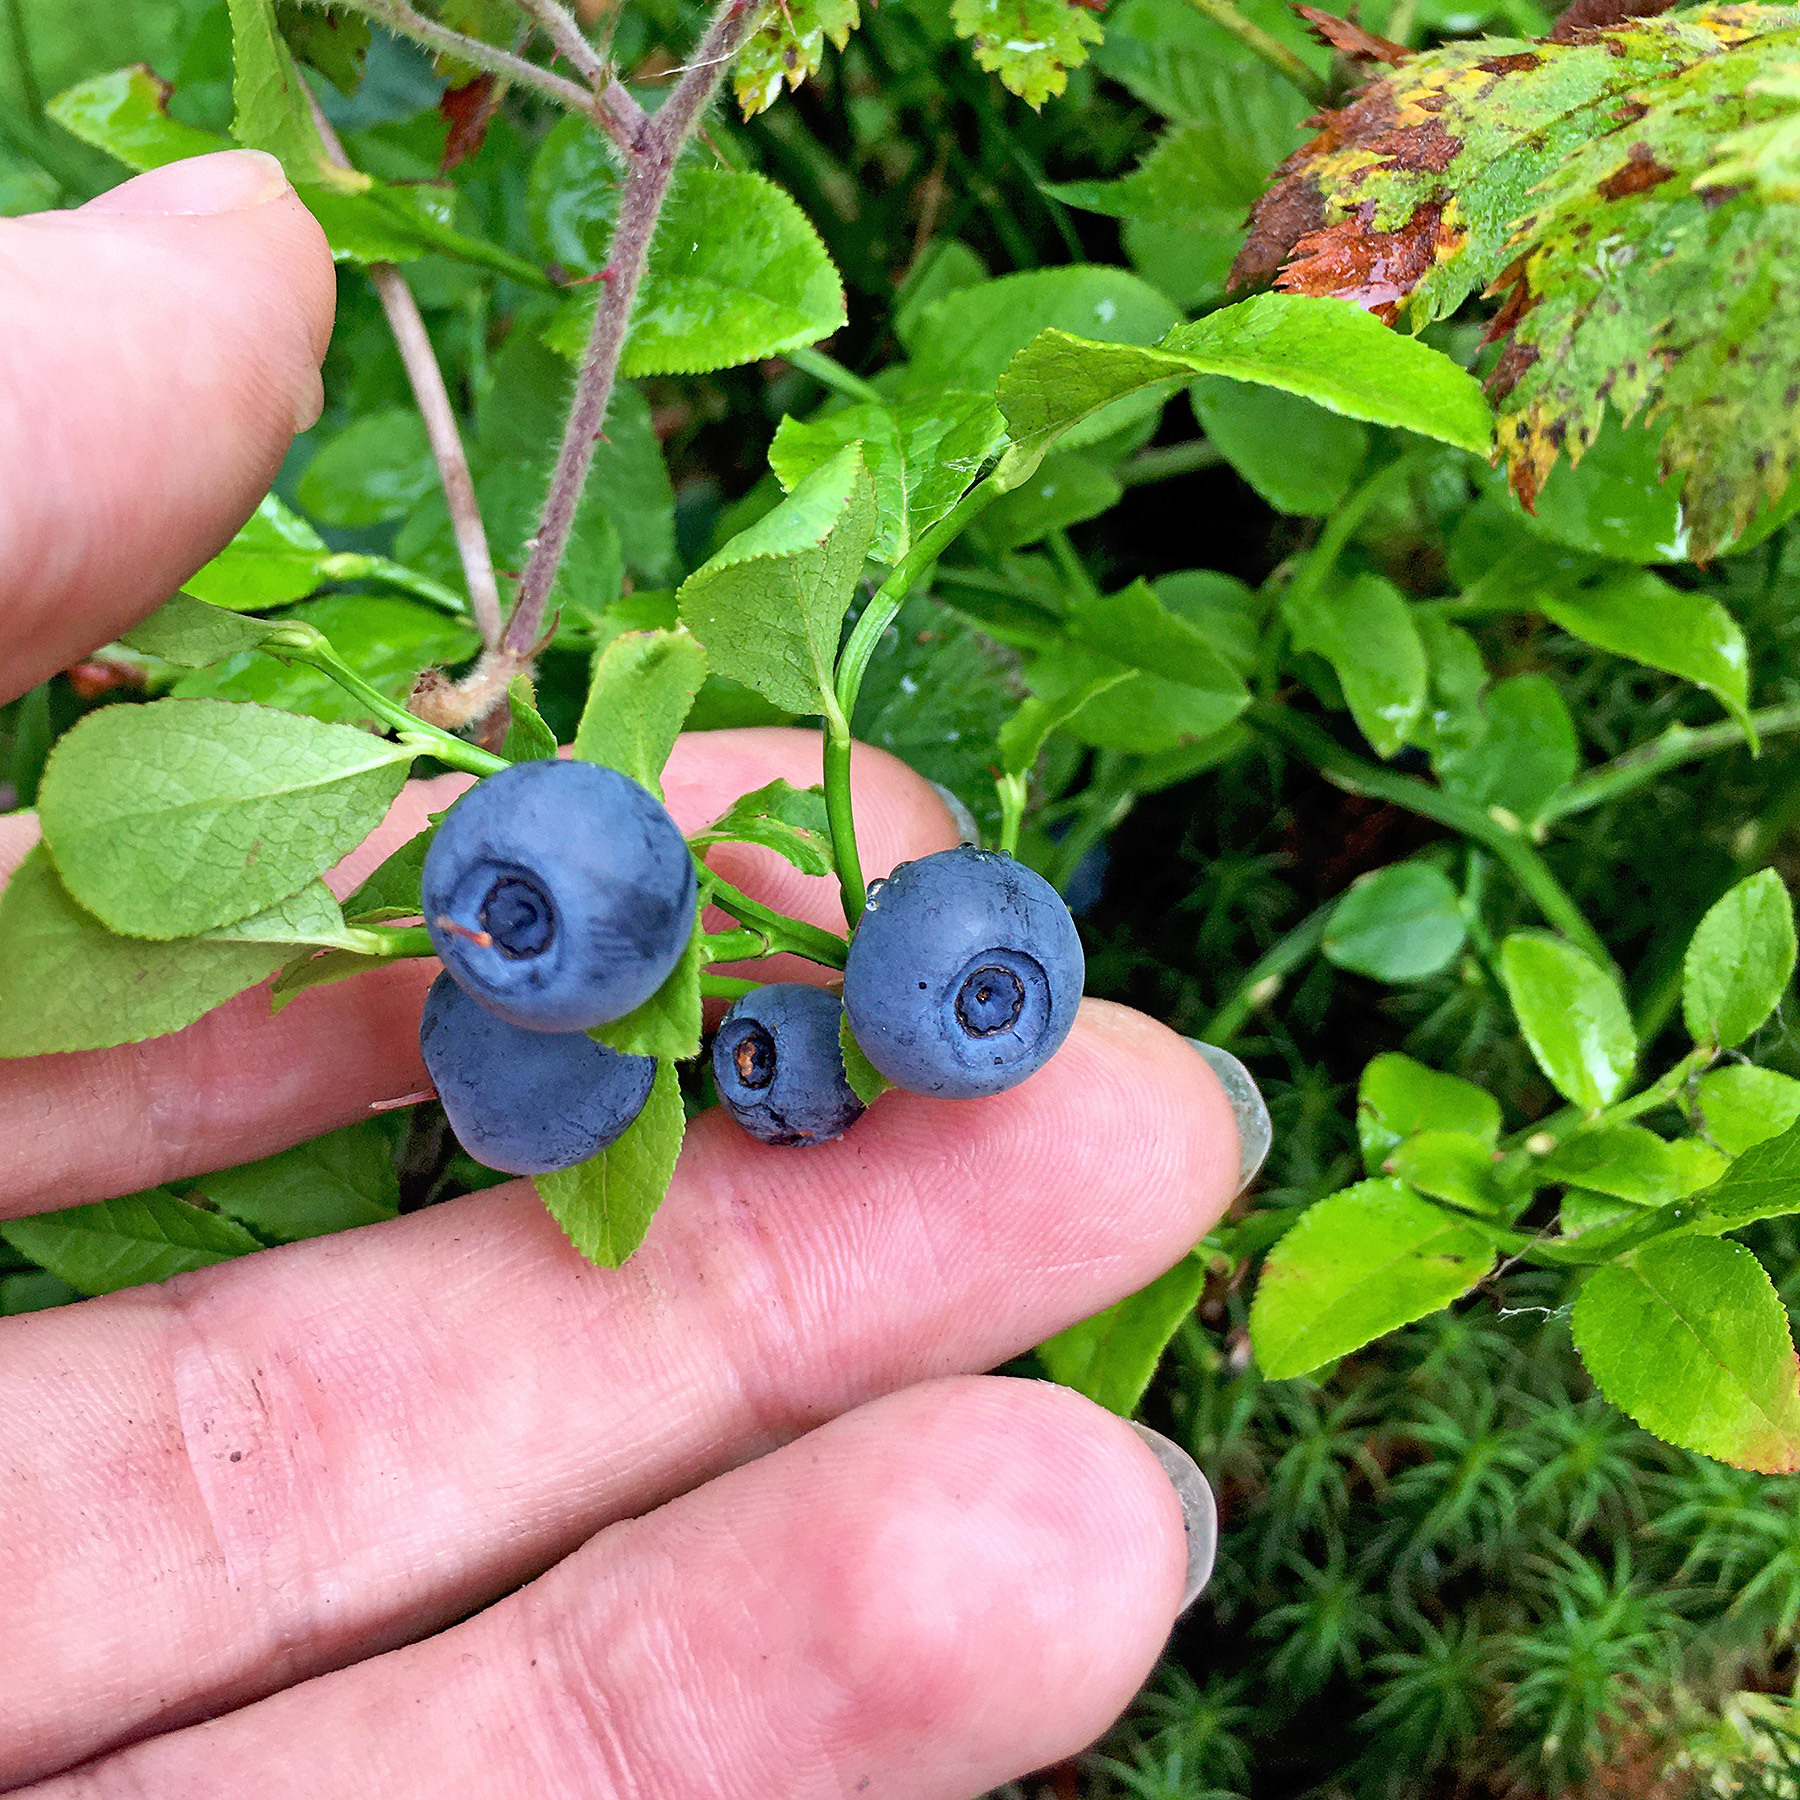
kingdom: Plantae
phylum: Tracheophyta
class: Magnoliopsida
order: Ericales
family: Ericaceae
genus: Vaccinium
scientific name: Vaccinium myrtillus
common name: Bilberry
